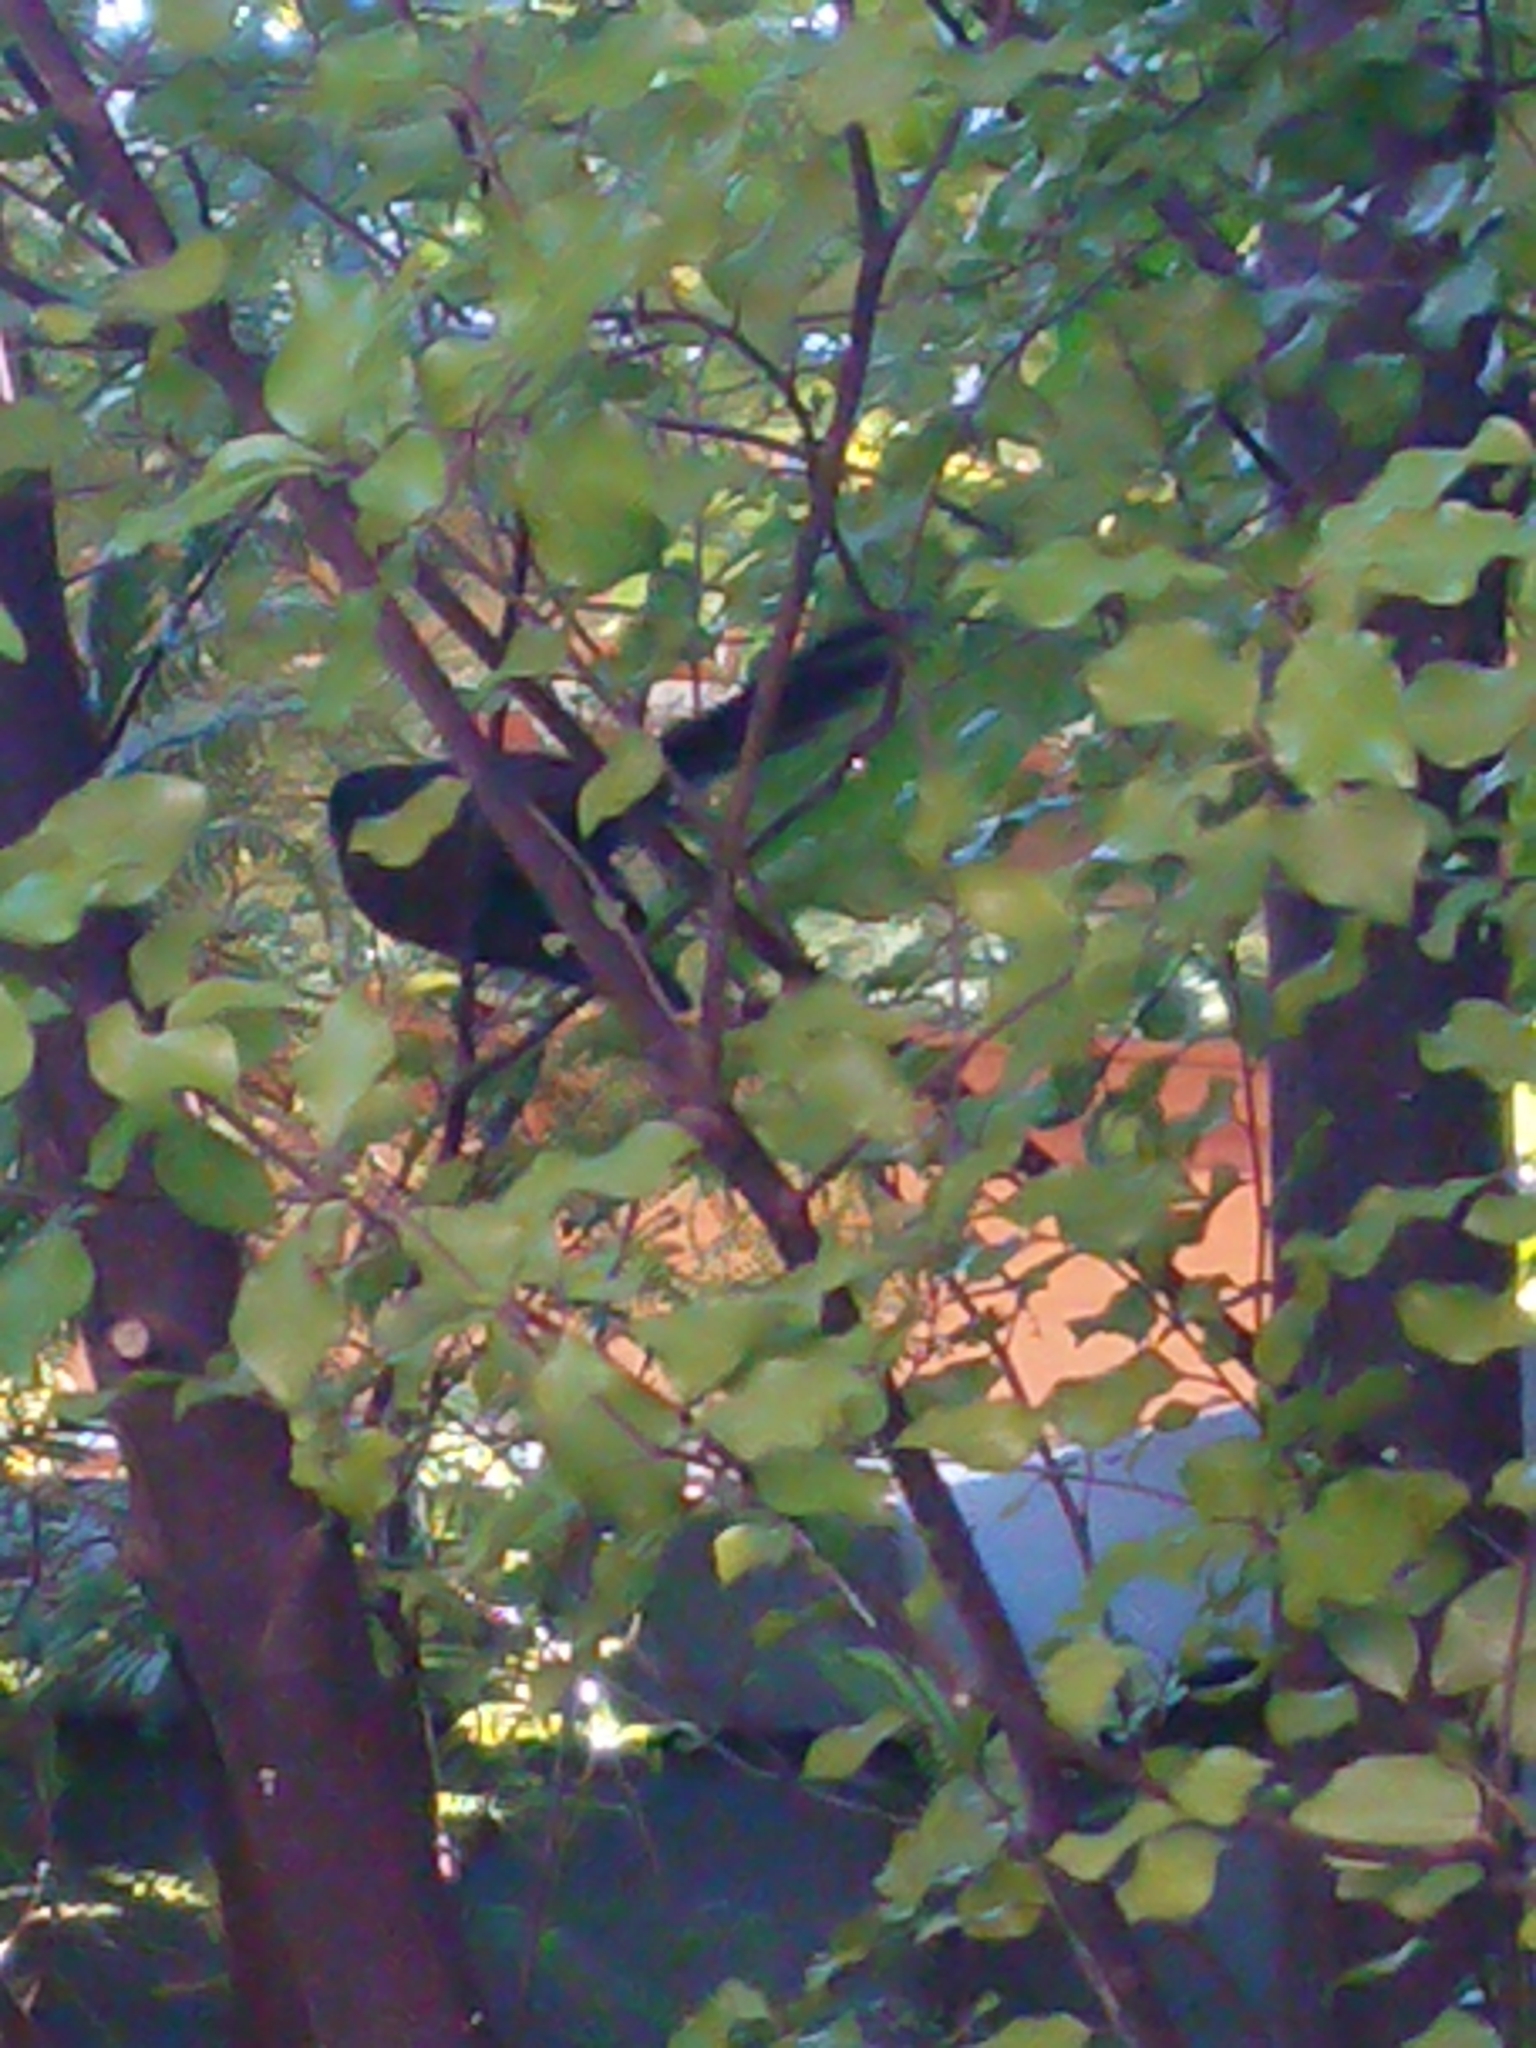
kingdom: Animalia
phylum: Chordata
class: Aves
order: Passeriformes
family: Rhipiduridae
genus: Rhipidura
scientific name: Rhipidura fuliginosa
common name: New zealand fantail
